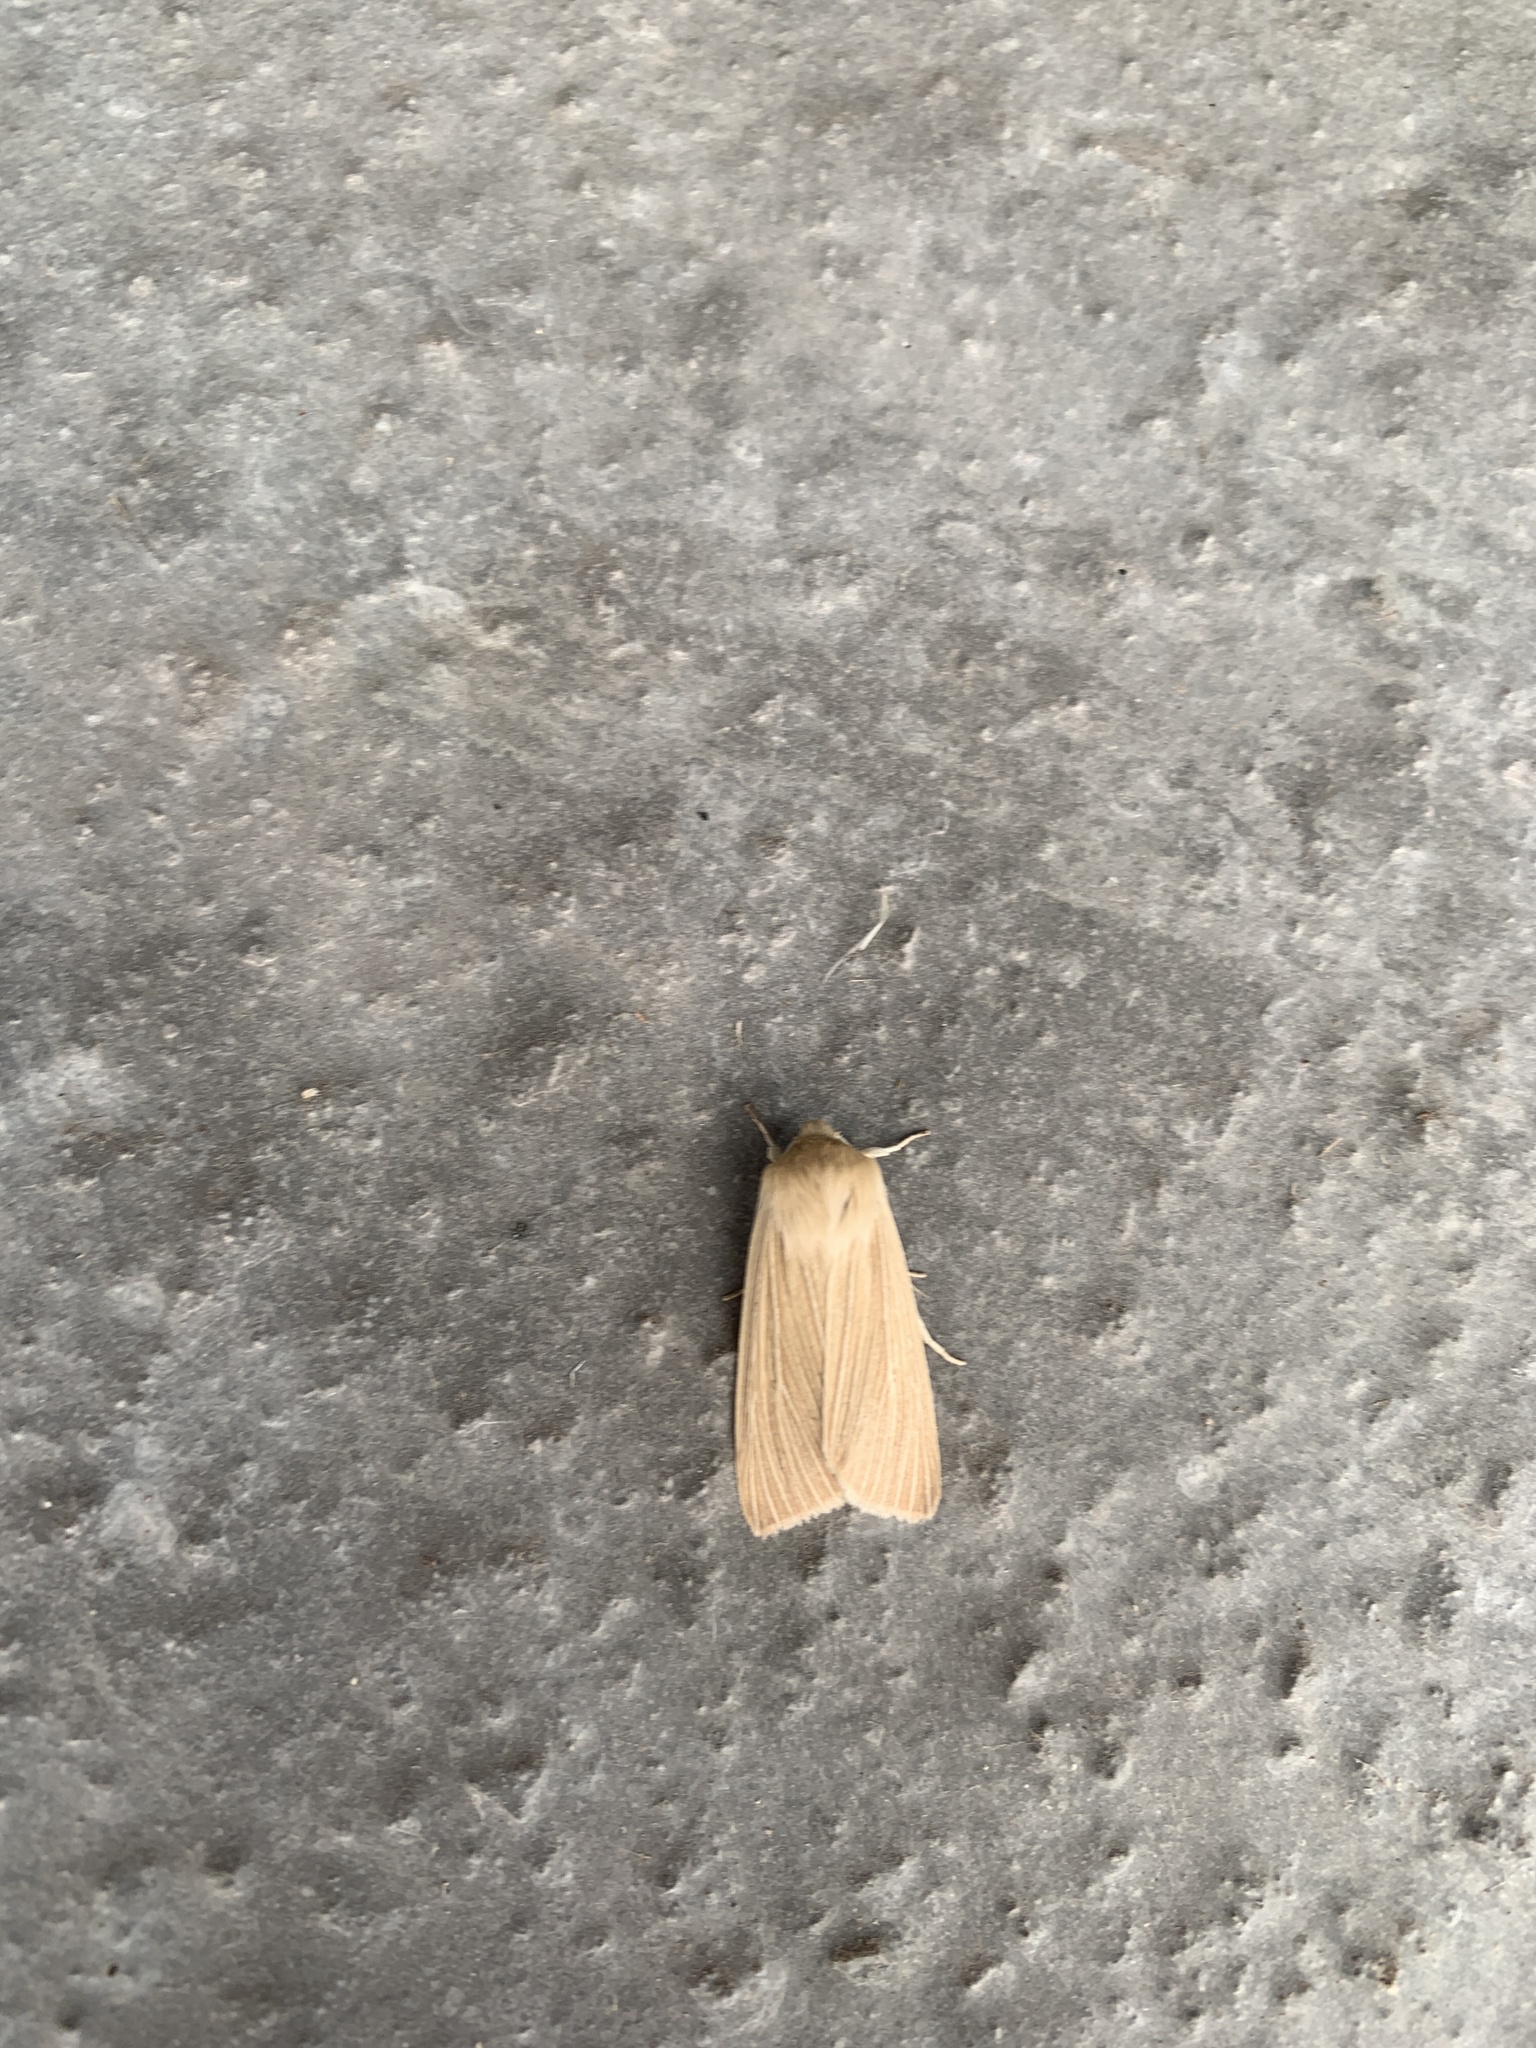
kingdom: Animalia
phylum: Arthropoda
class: Insecta
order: Lepidoptera
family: Noctuidae
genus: Mythimna
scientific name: Mythimna pallens
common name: Common wainscot
